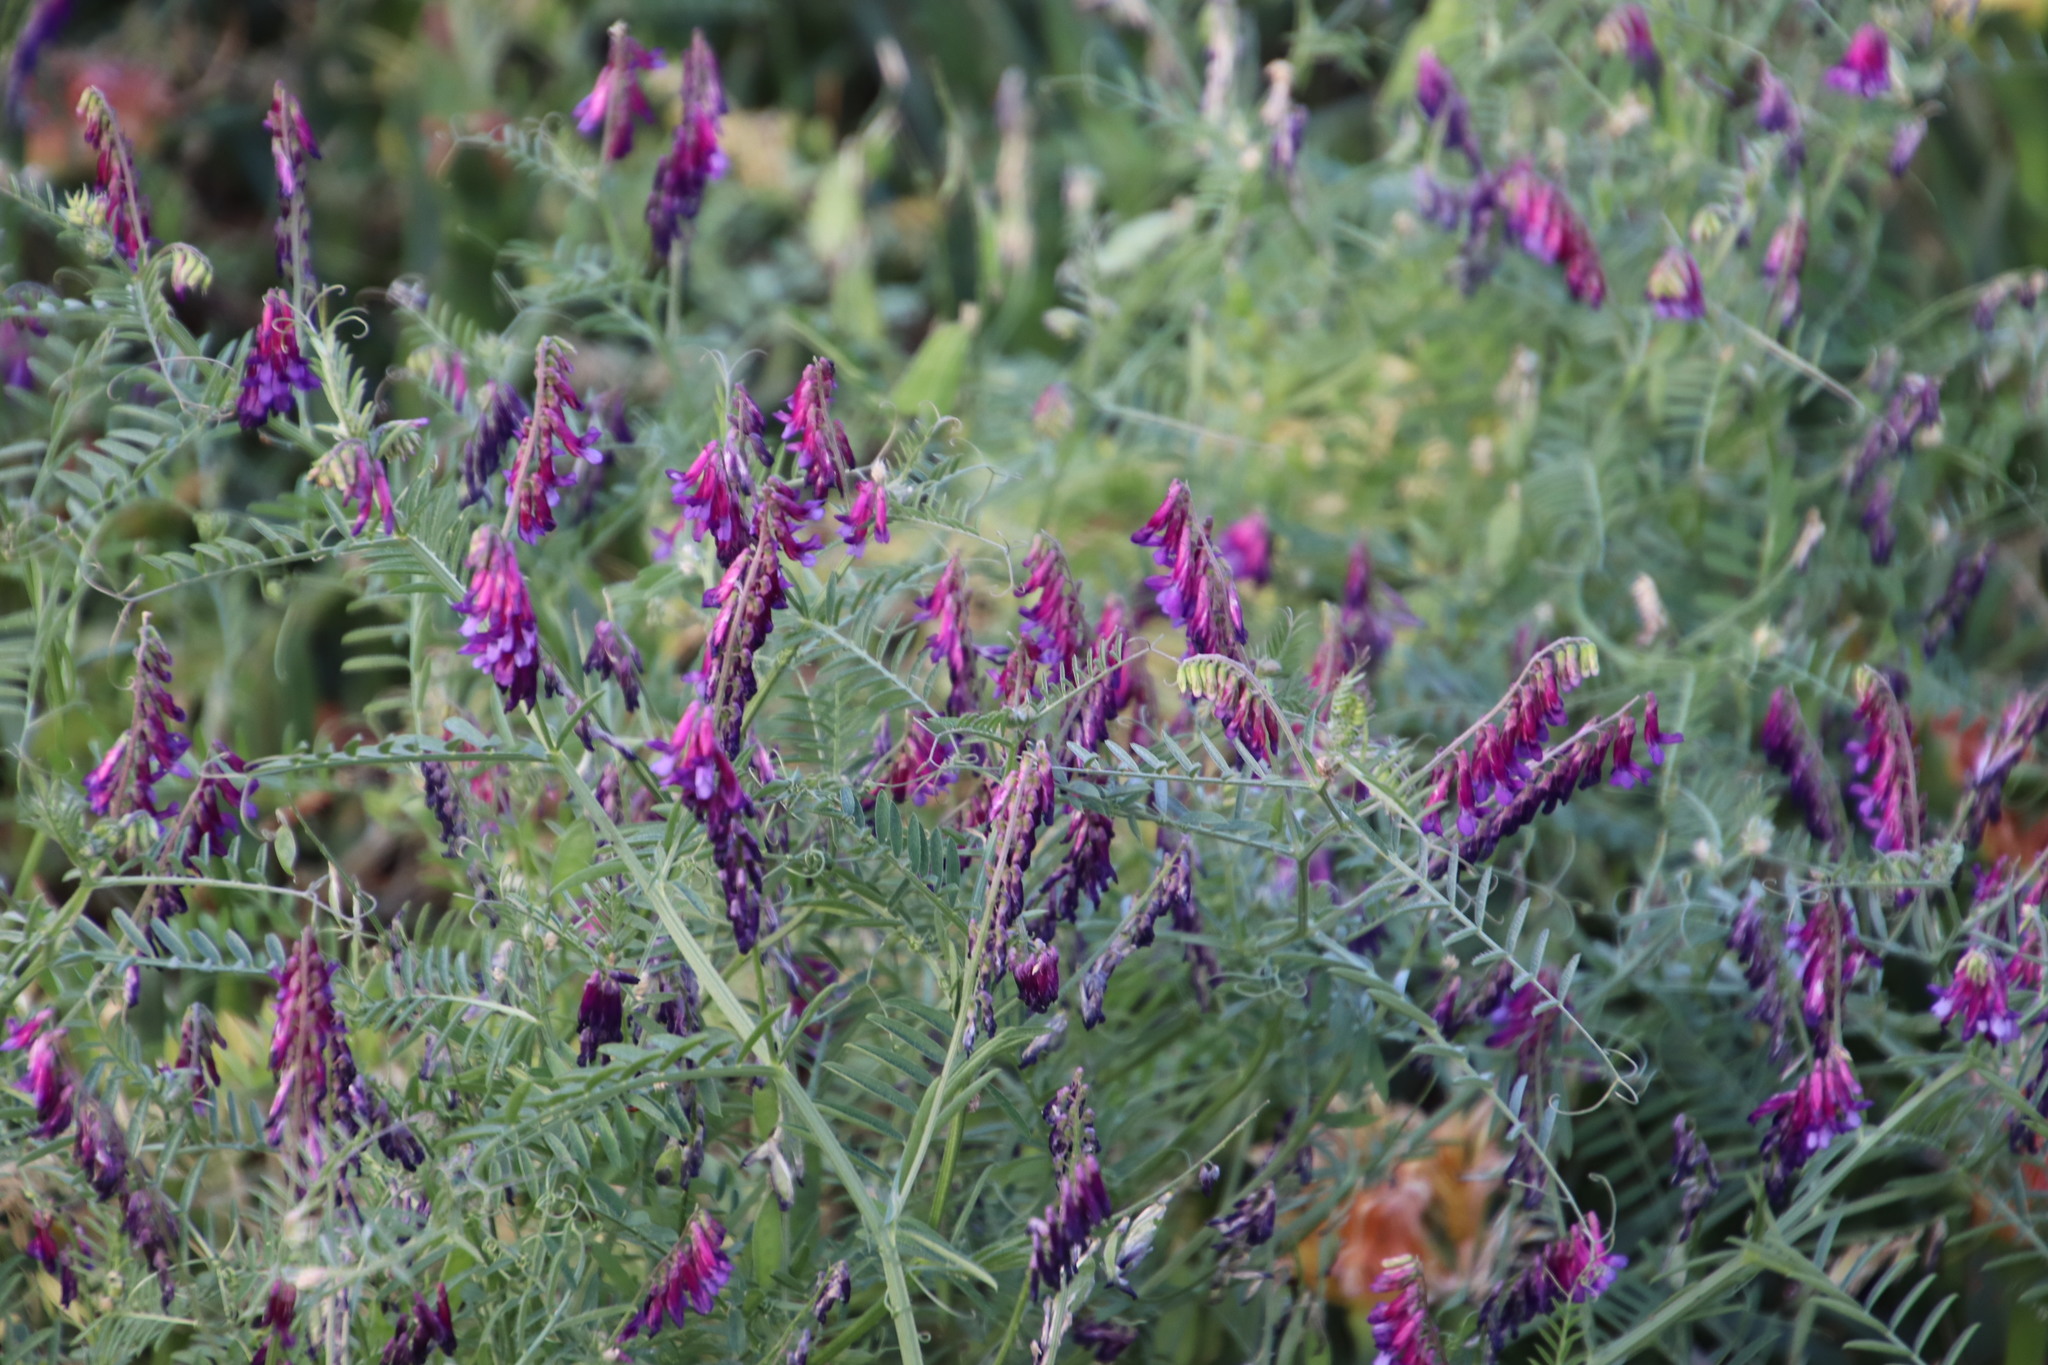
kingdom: Plantae
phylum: Tracheophyta
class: Magnoliopsida
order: Fabales
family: Fabaceae
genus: Vicia
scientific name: Vicia eriocarpa
